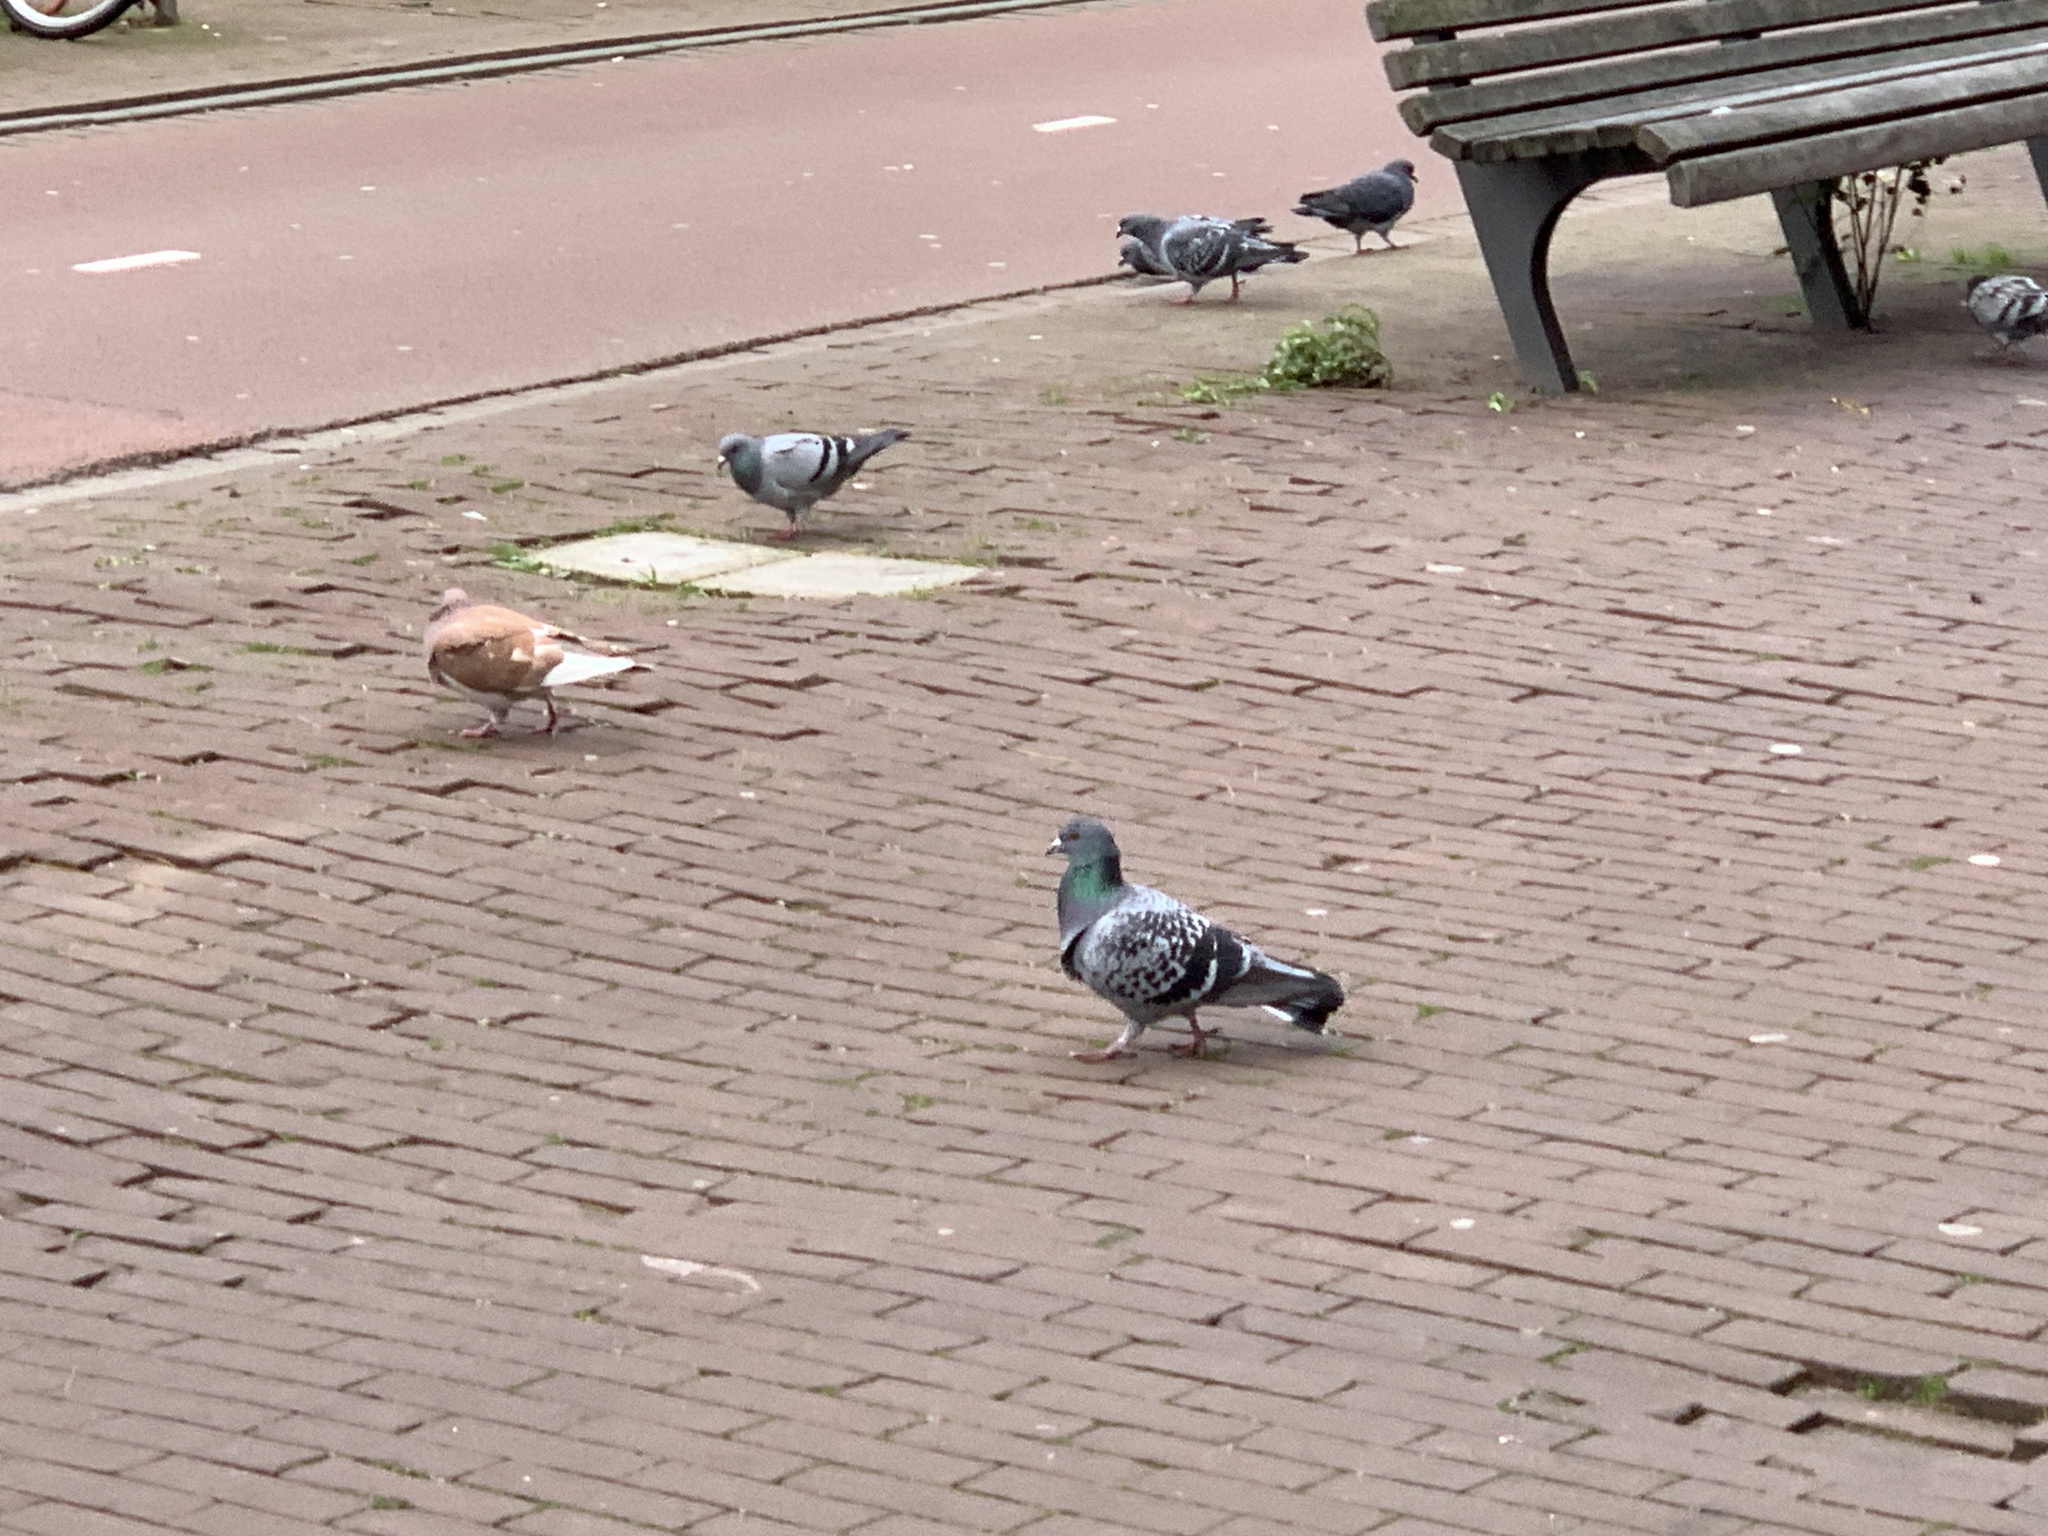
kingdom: Animalia
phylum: Chordata
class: Aves
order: Columbiformes
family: Columbidae
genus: Columba
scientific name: Columba livia
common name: Rock pigeon
